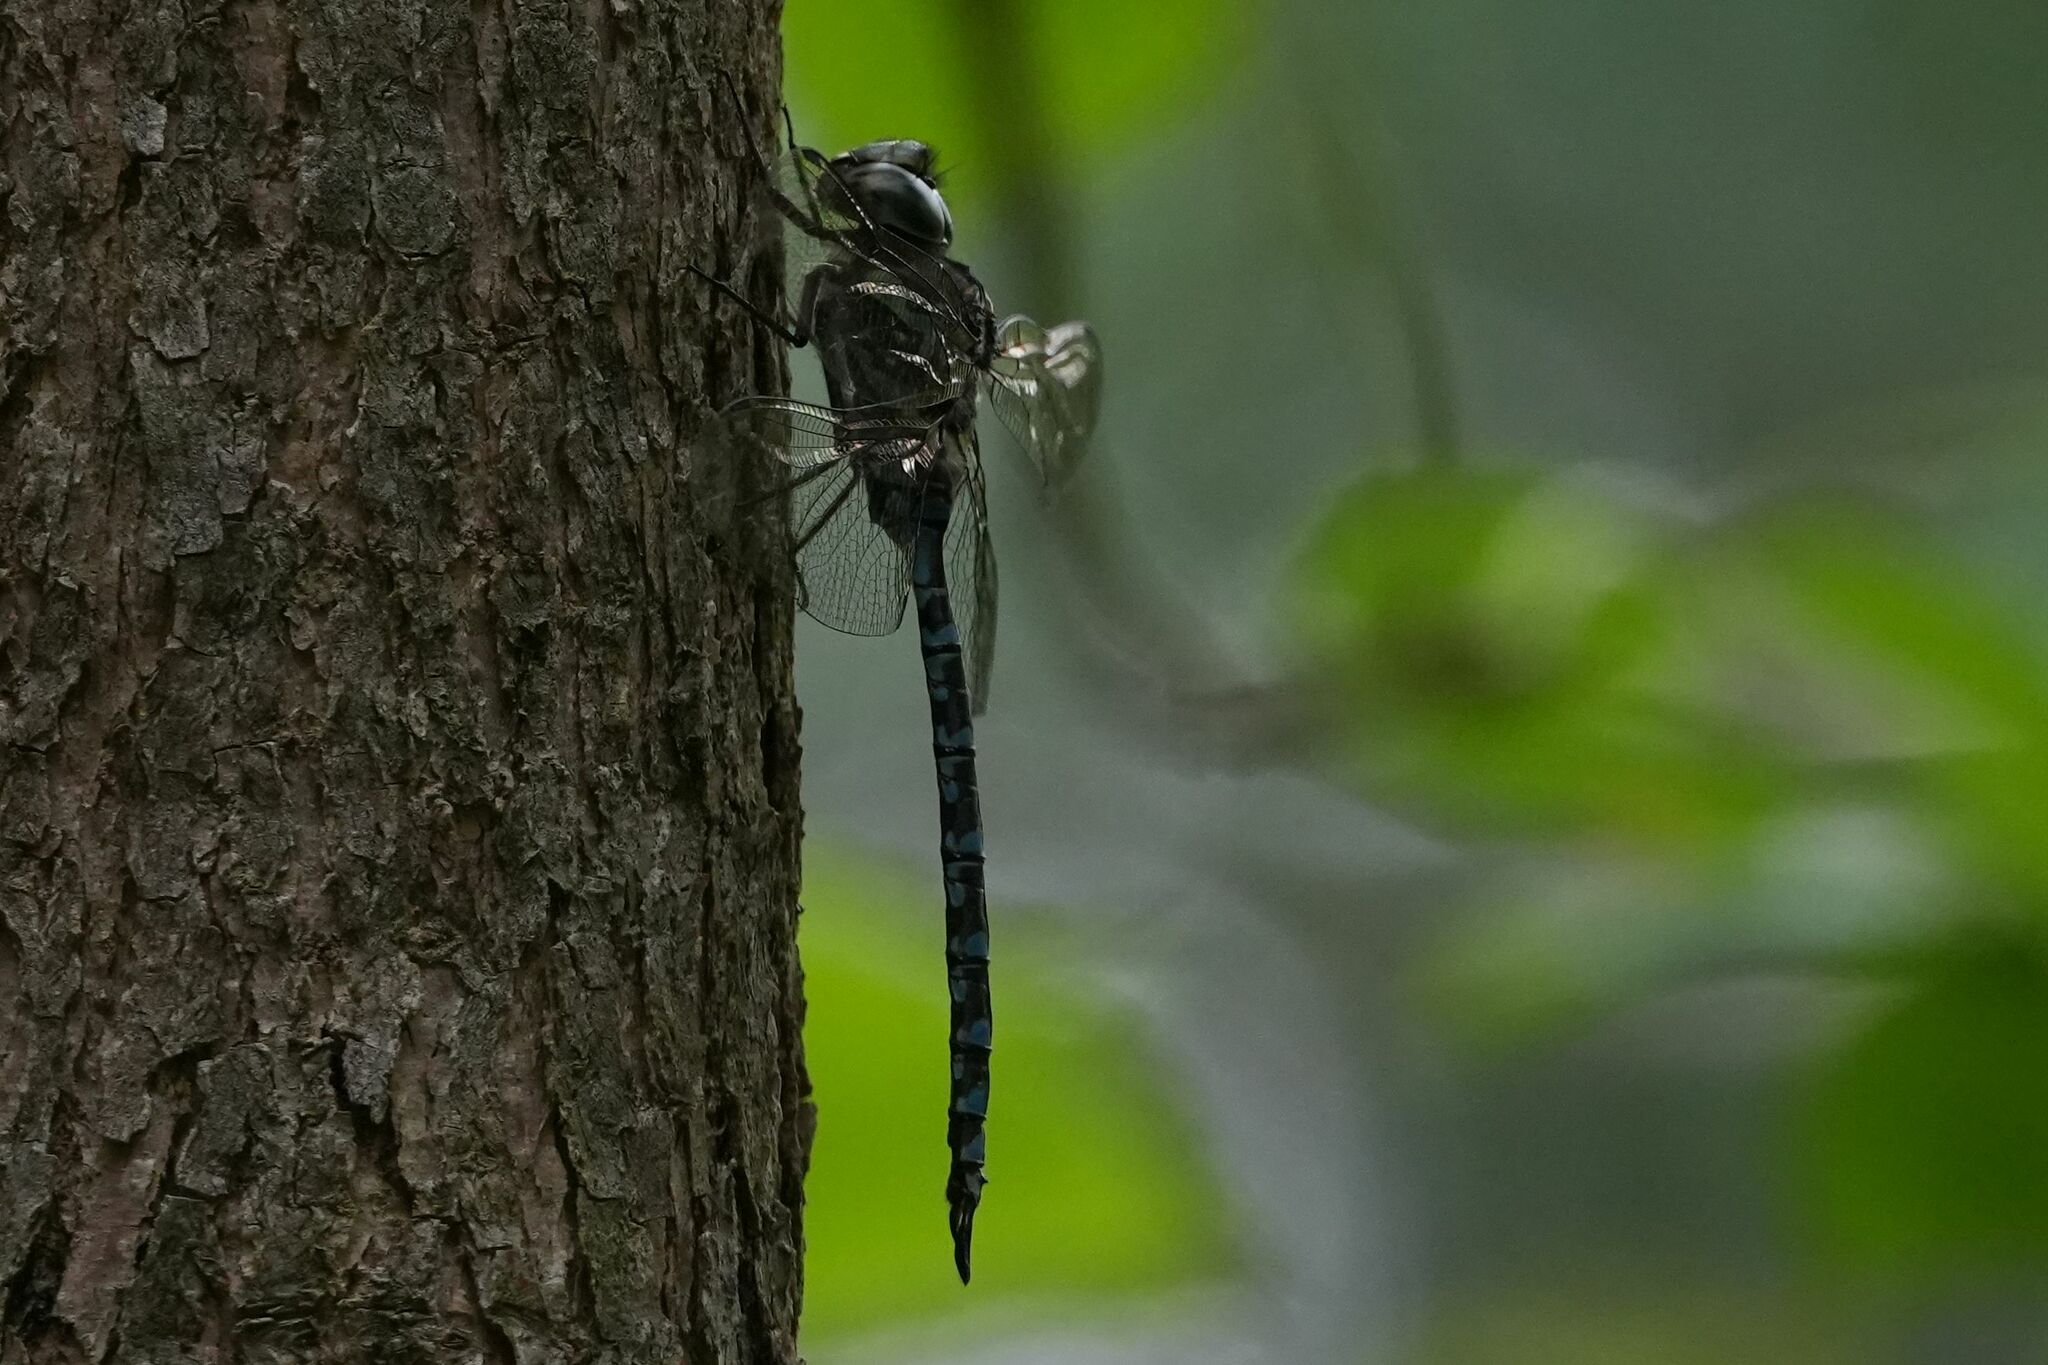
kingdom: Animalia
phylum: Arthropoda
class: Insecta
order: Odonata
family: Aeshnidae
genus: Aeshna
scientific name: Aeshna canadensis
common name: Canada darner
